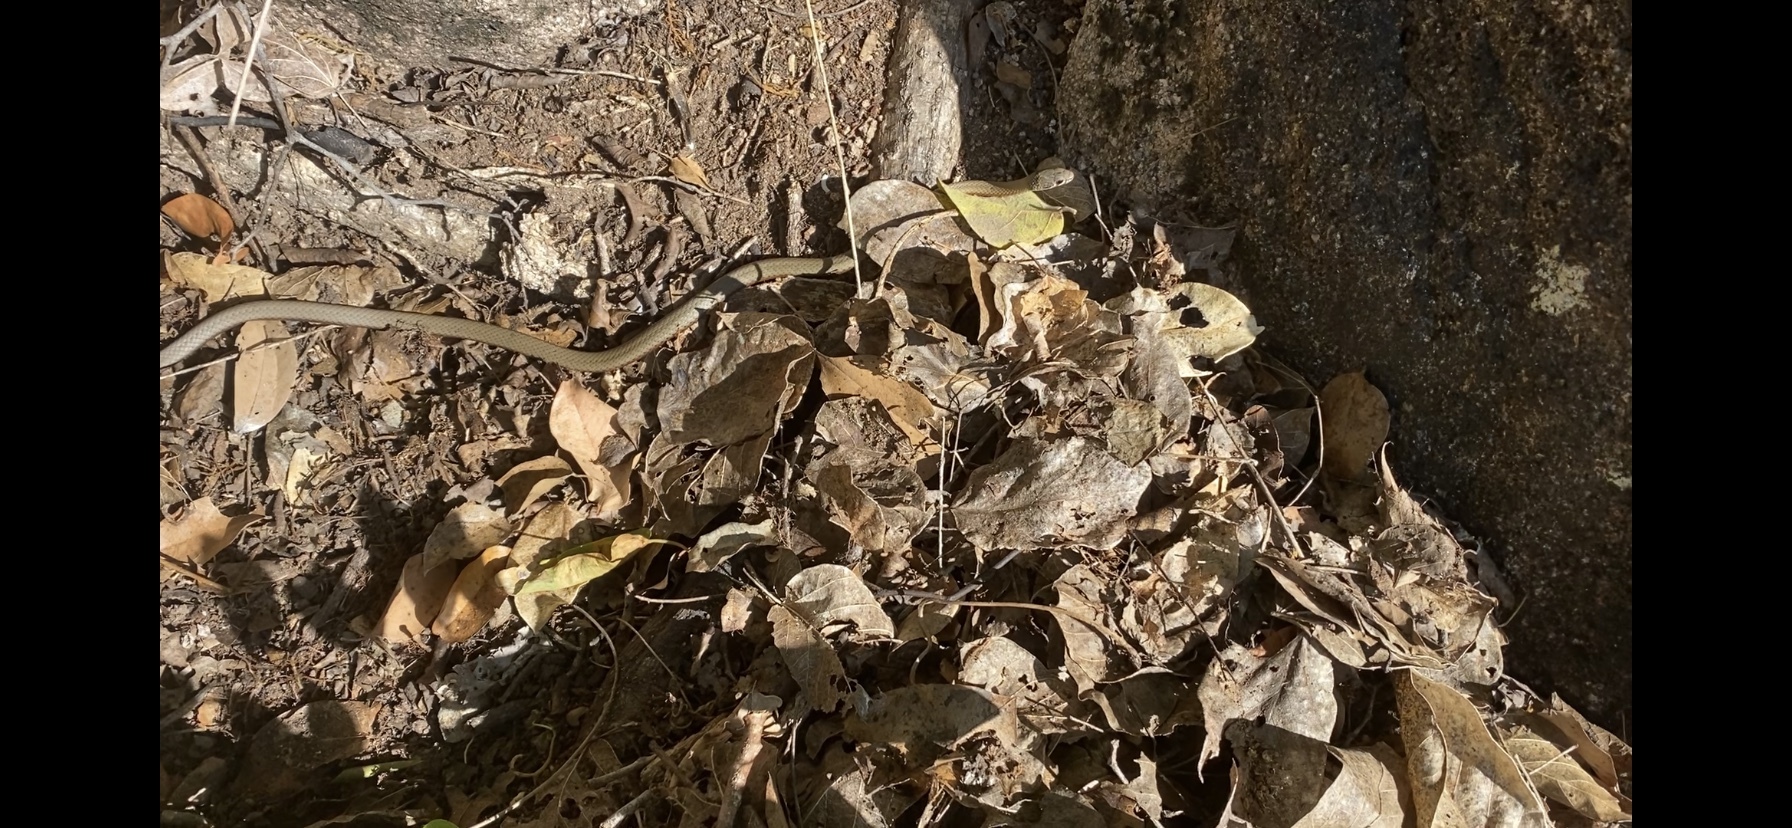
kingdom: Animalia
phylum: Chordata
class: Squamata
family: Elapidae
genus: Demansia
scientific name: Demansia torquata
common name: Collared whip snake
